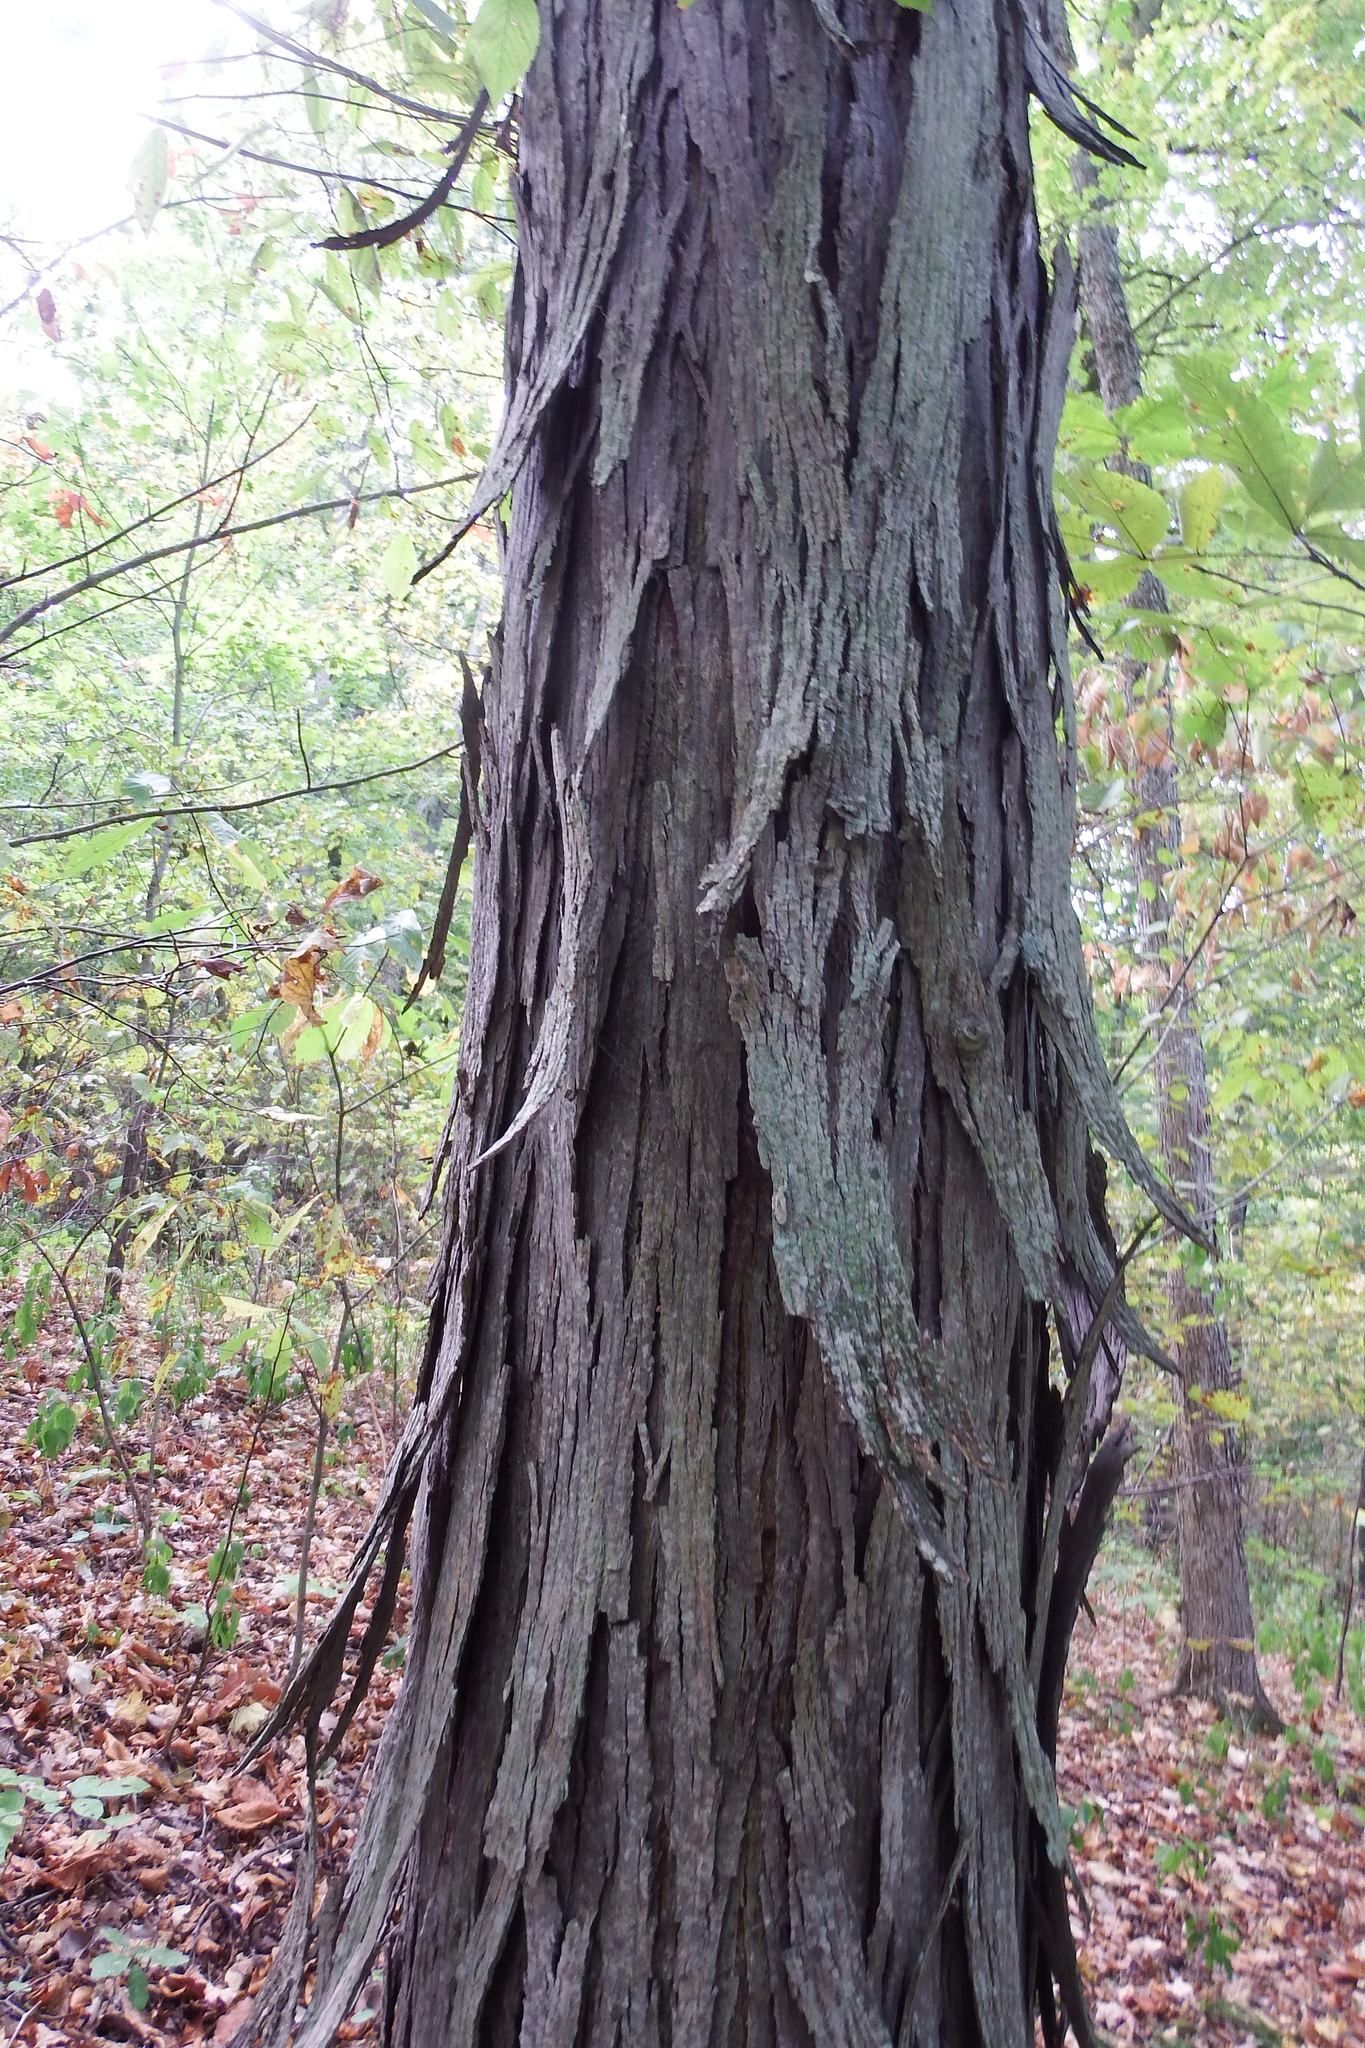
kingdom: Plantae
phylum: Tracheophyta
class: Magnoliopsida
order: Fagales
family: Juglandaceae
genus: Carya
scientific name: Carya ovata
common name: Shagbark hickory
